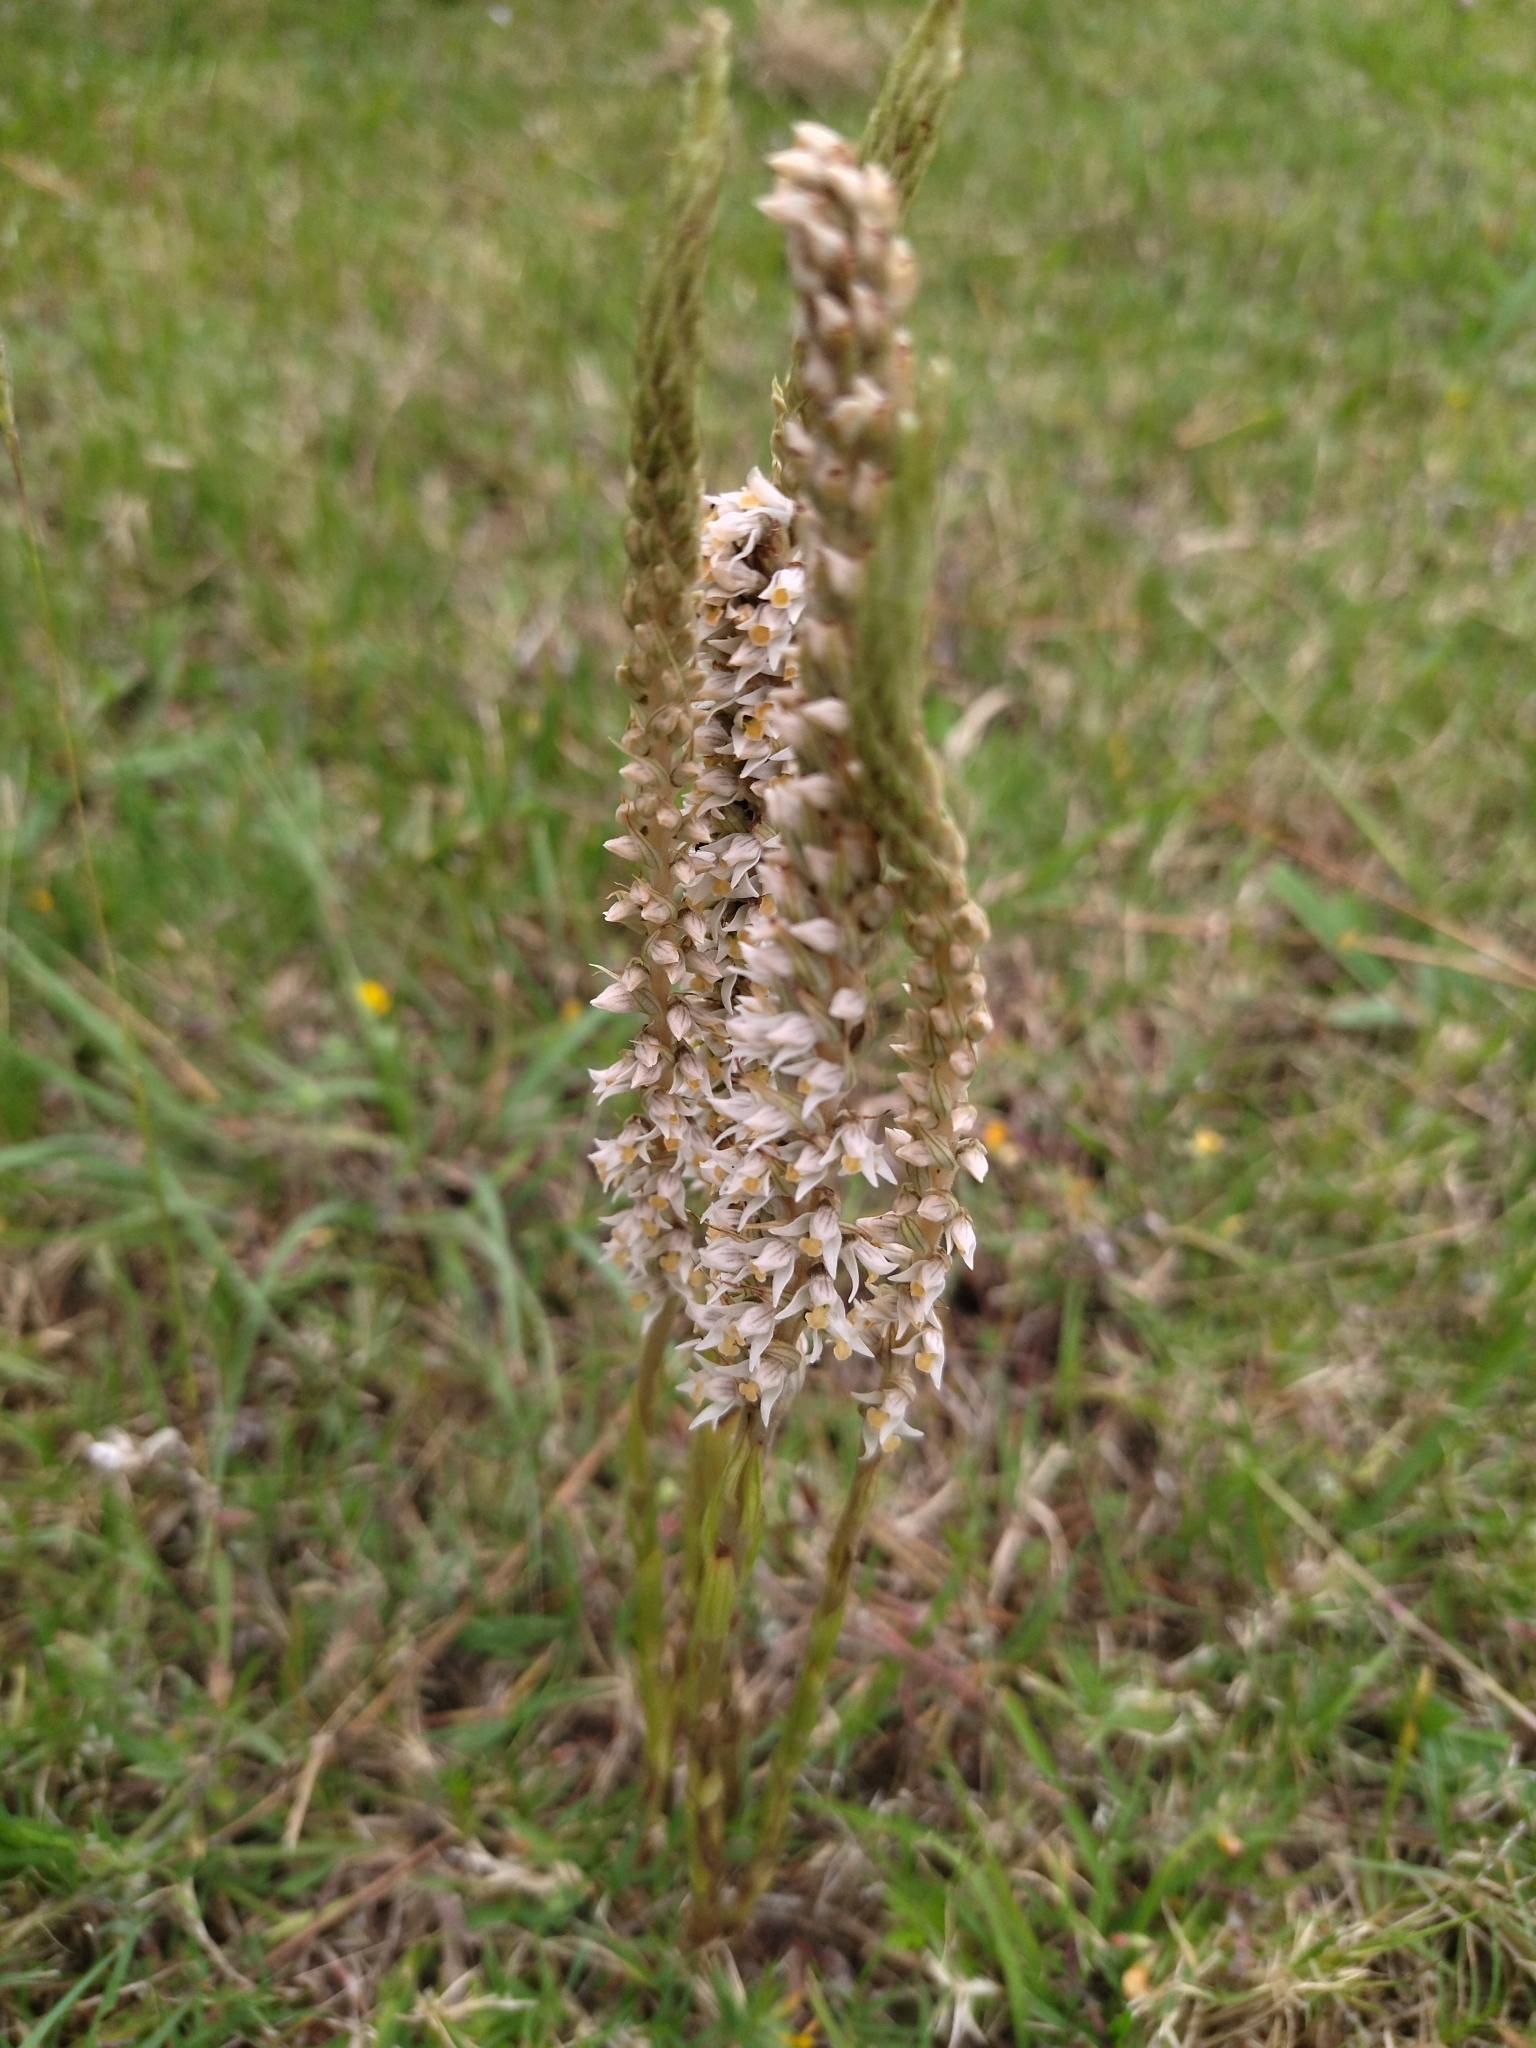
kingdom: Plantae
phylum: Tracheophyta
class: Liliopsida
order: Asparagales
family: Orchidaceae
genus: Brachystele
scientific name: Brachystele camporum
